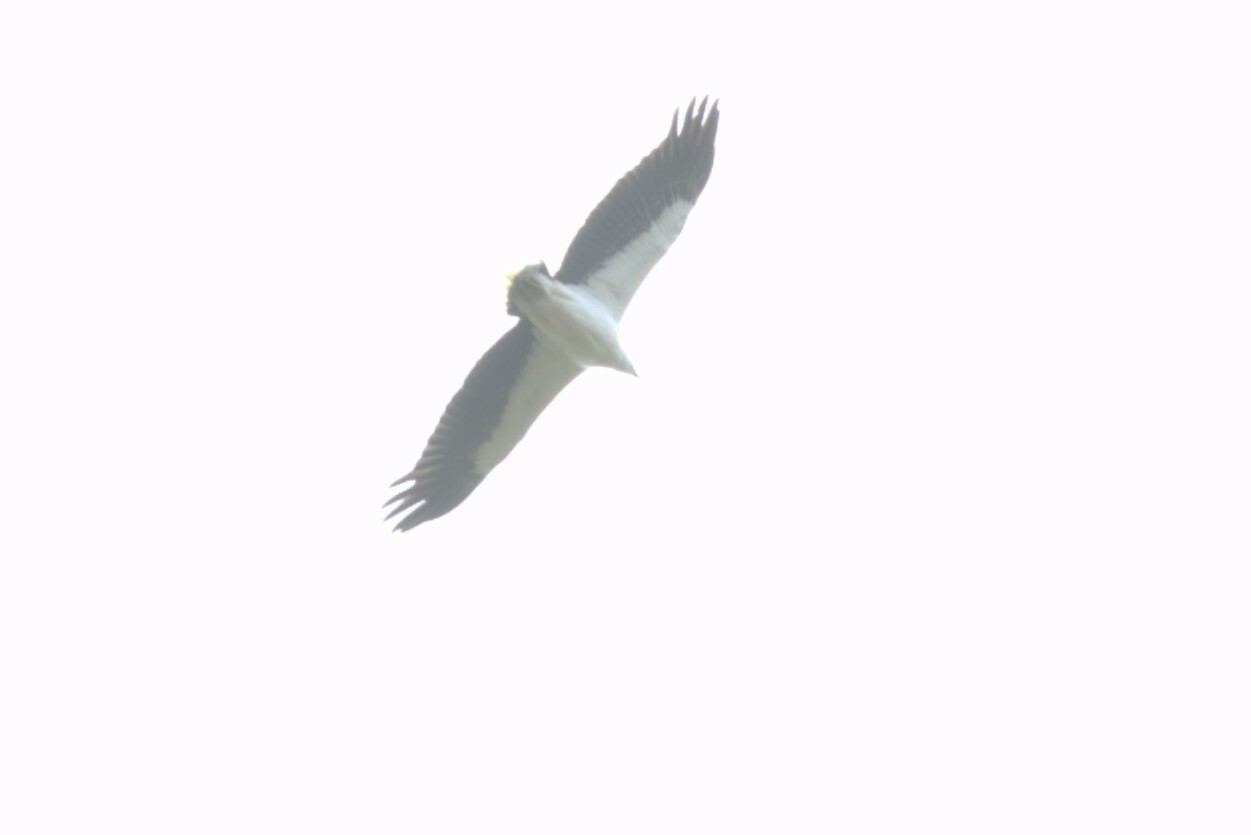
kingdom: Animalia
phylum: Chordata
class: Aves
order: Accipitriformes
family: Accipitridae
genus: Haliaeetus
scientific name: Haliaeetus leucogaster
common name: White-bellied sea eagle
